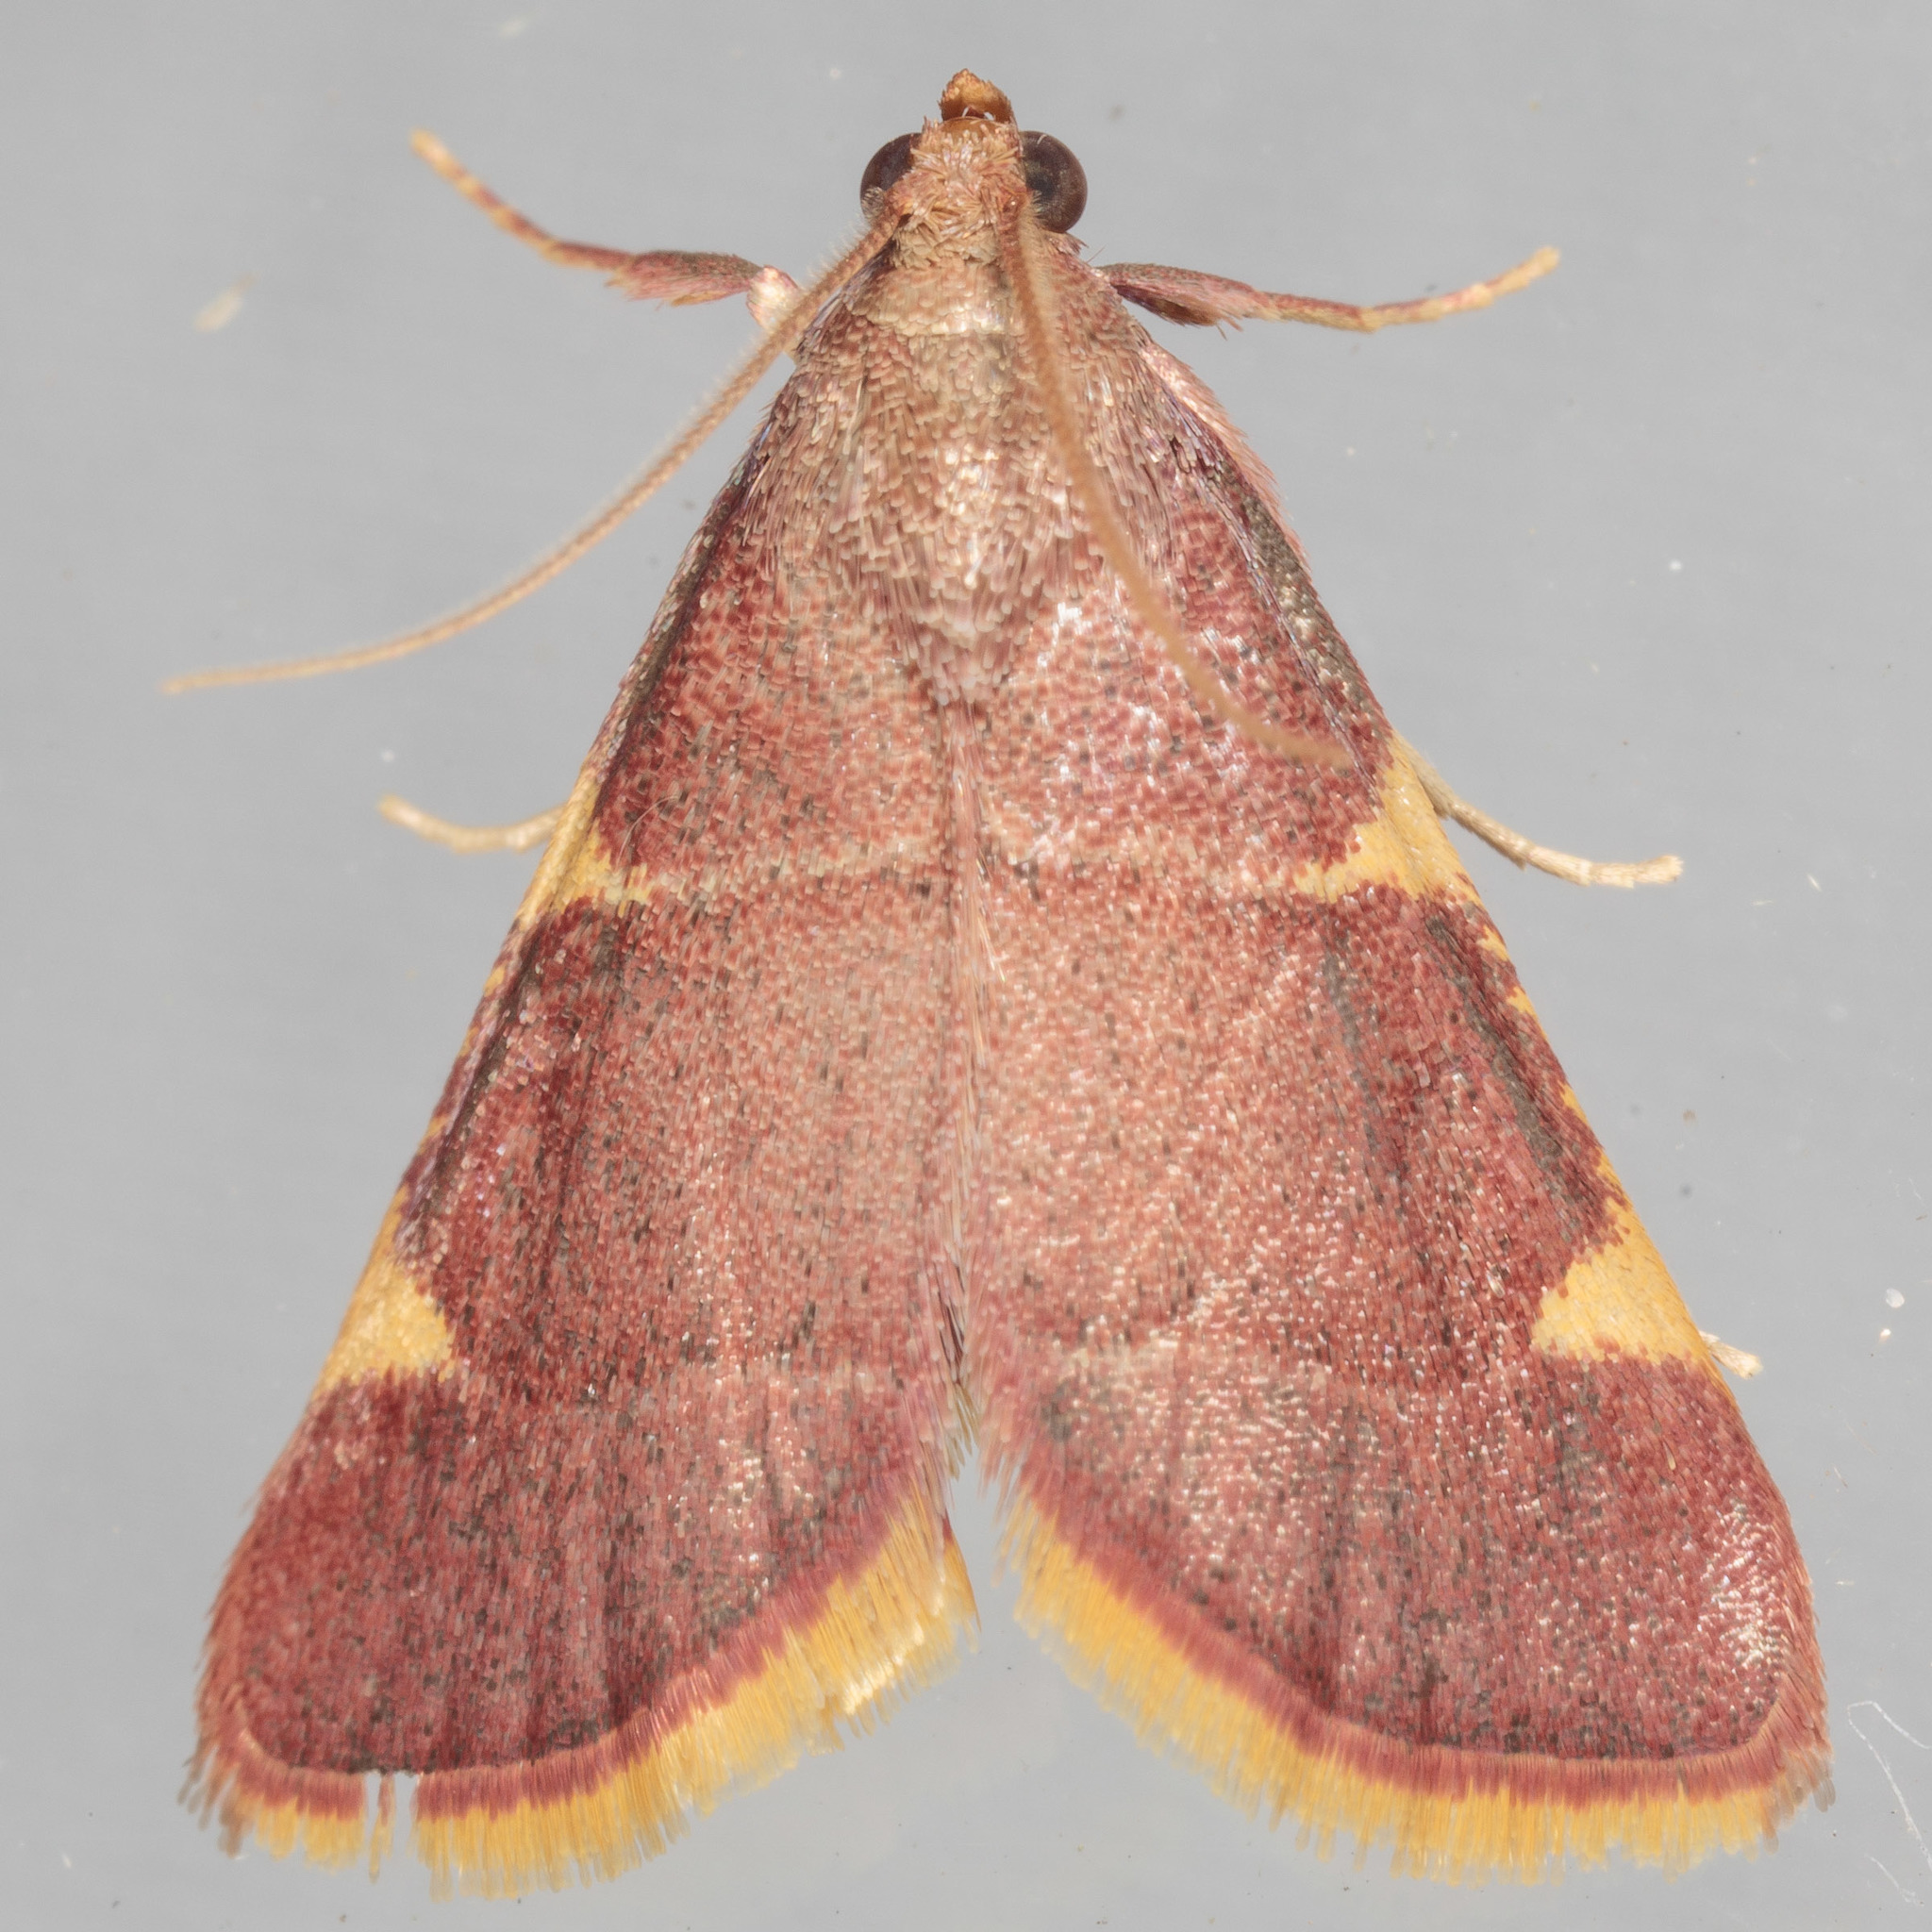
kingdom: Animalia
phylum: Arthropoda
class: Insecta
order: Lepidoptera
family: Pyralidae
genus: Hypsopygia
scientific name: Hypsopygia olinalis
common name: Yellow-fringed dolichomia moth
